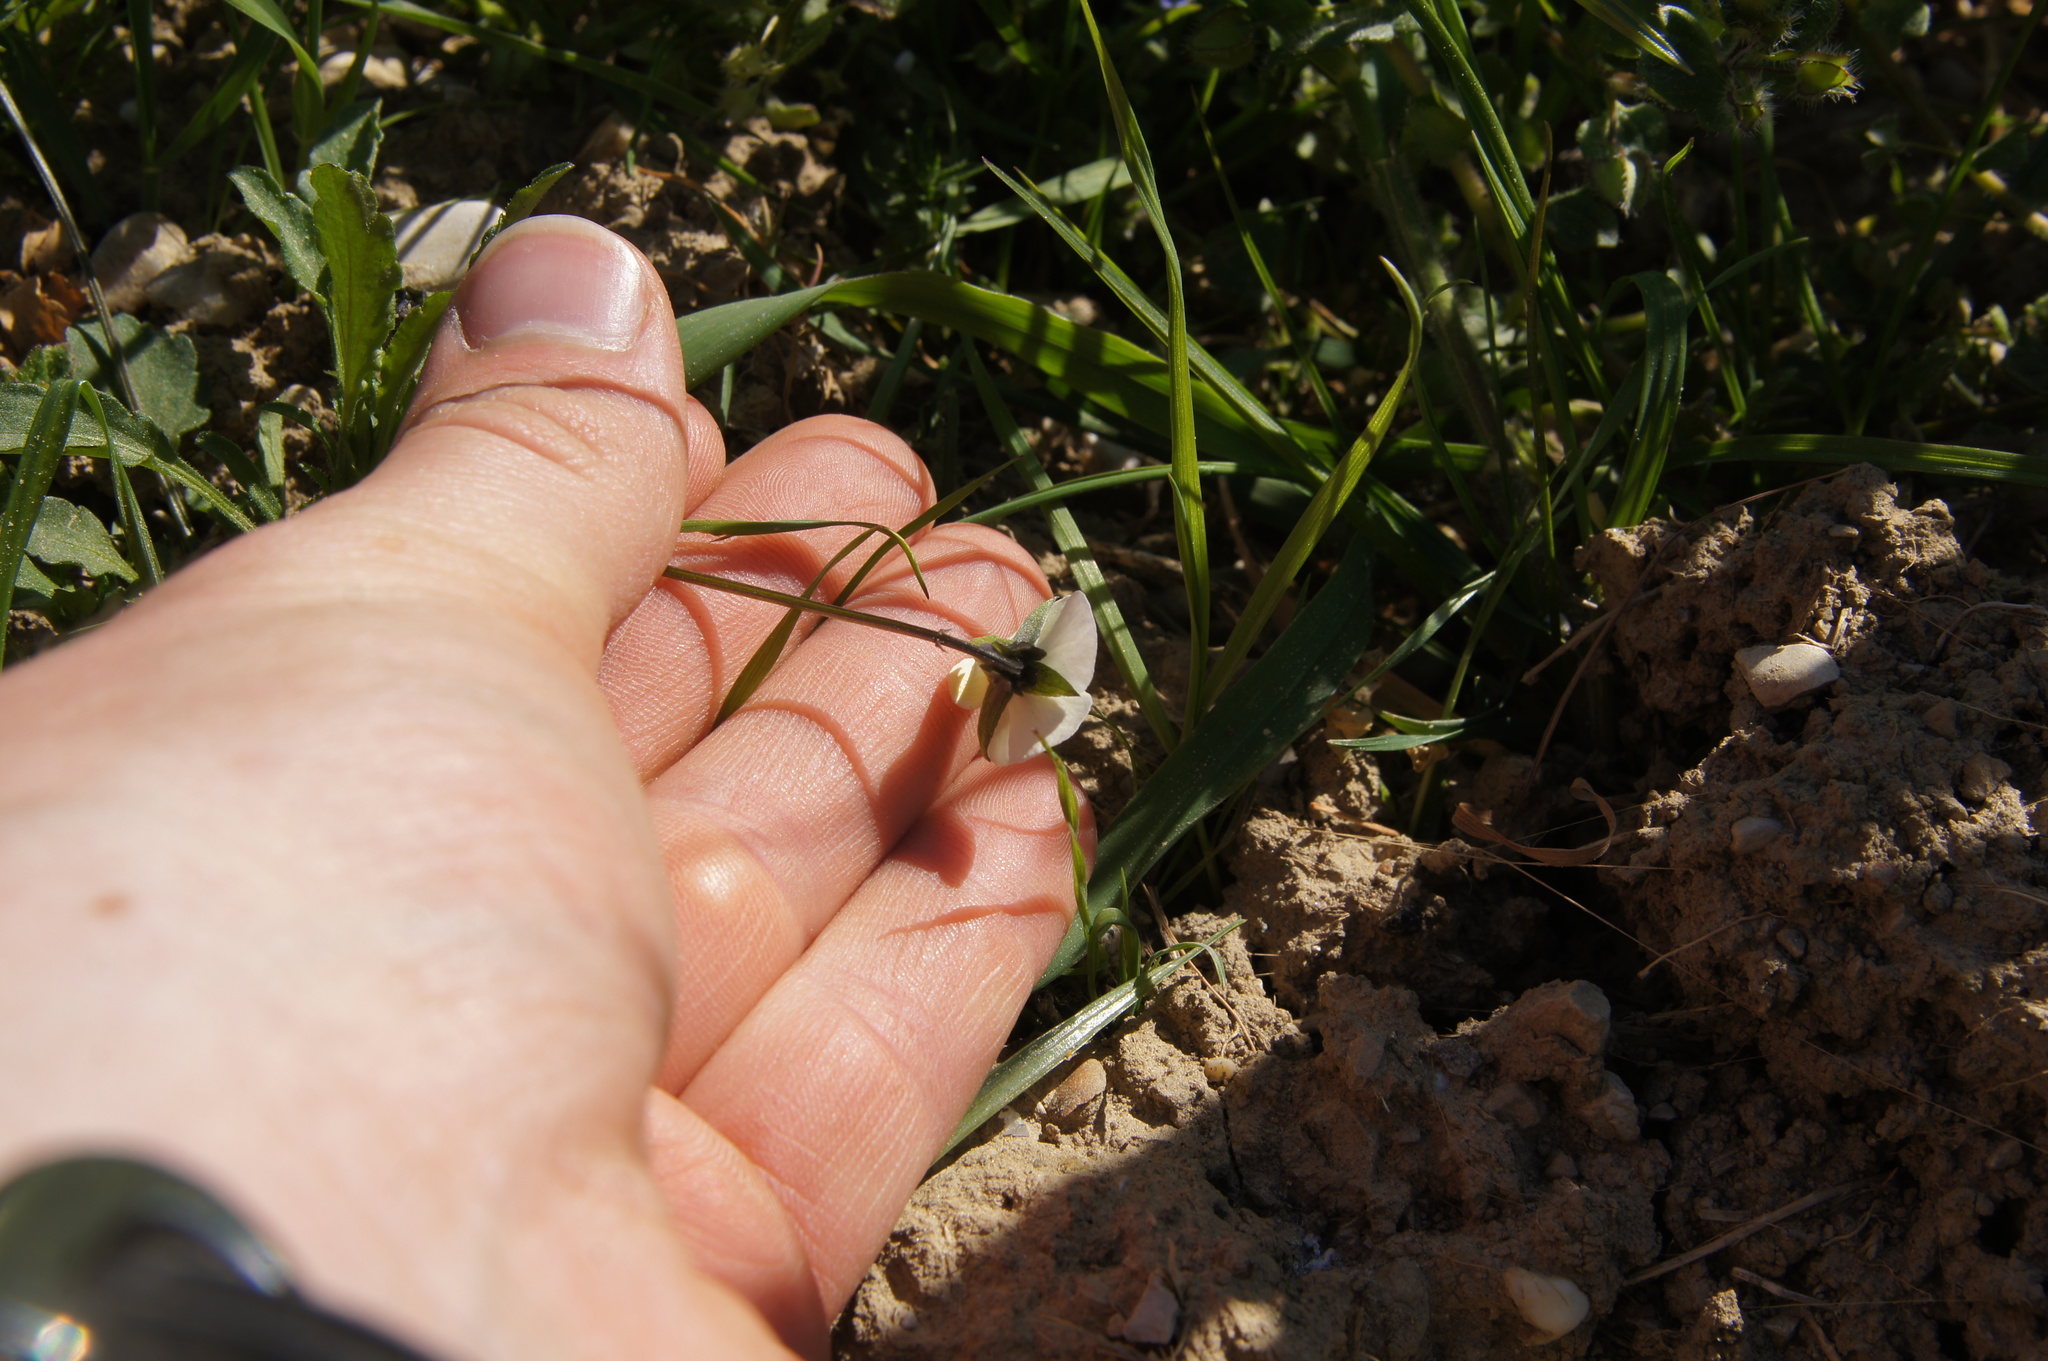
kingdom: Plantae
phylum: Tracheophyta
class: Magnoliopsida
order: Malpighiales
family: Violaceae
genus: Viola
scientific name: Viola arvensis
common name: Field pansy
